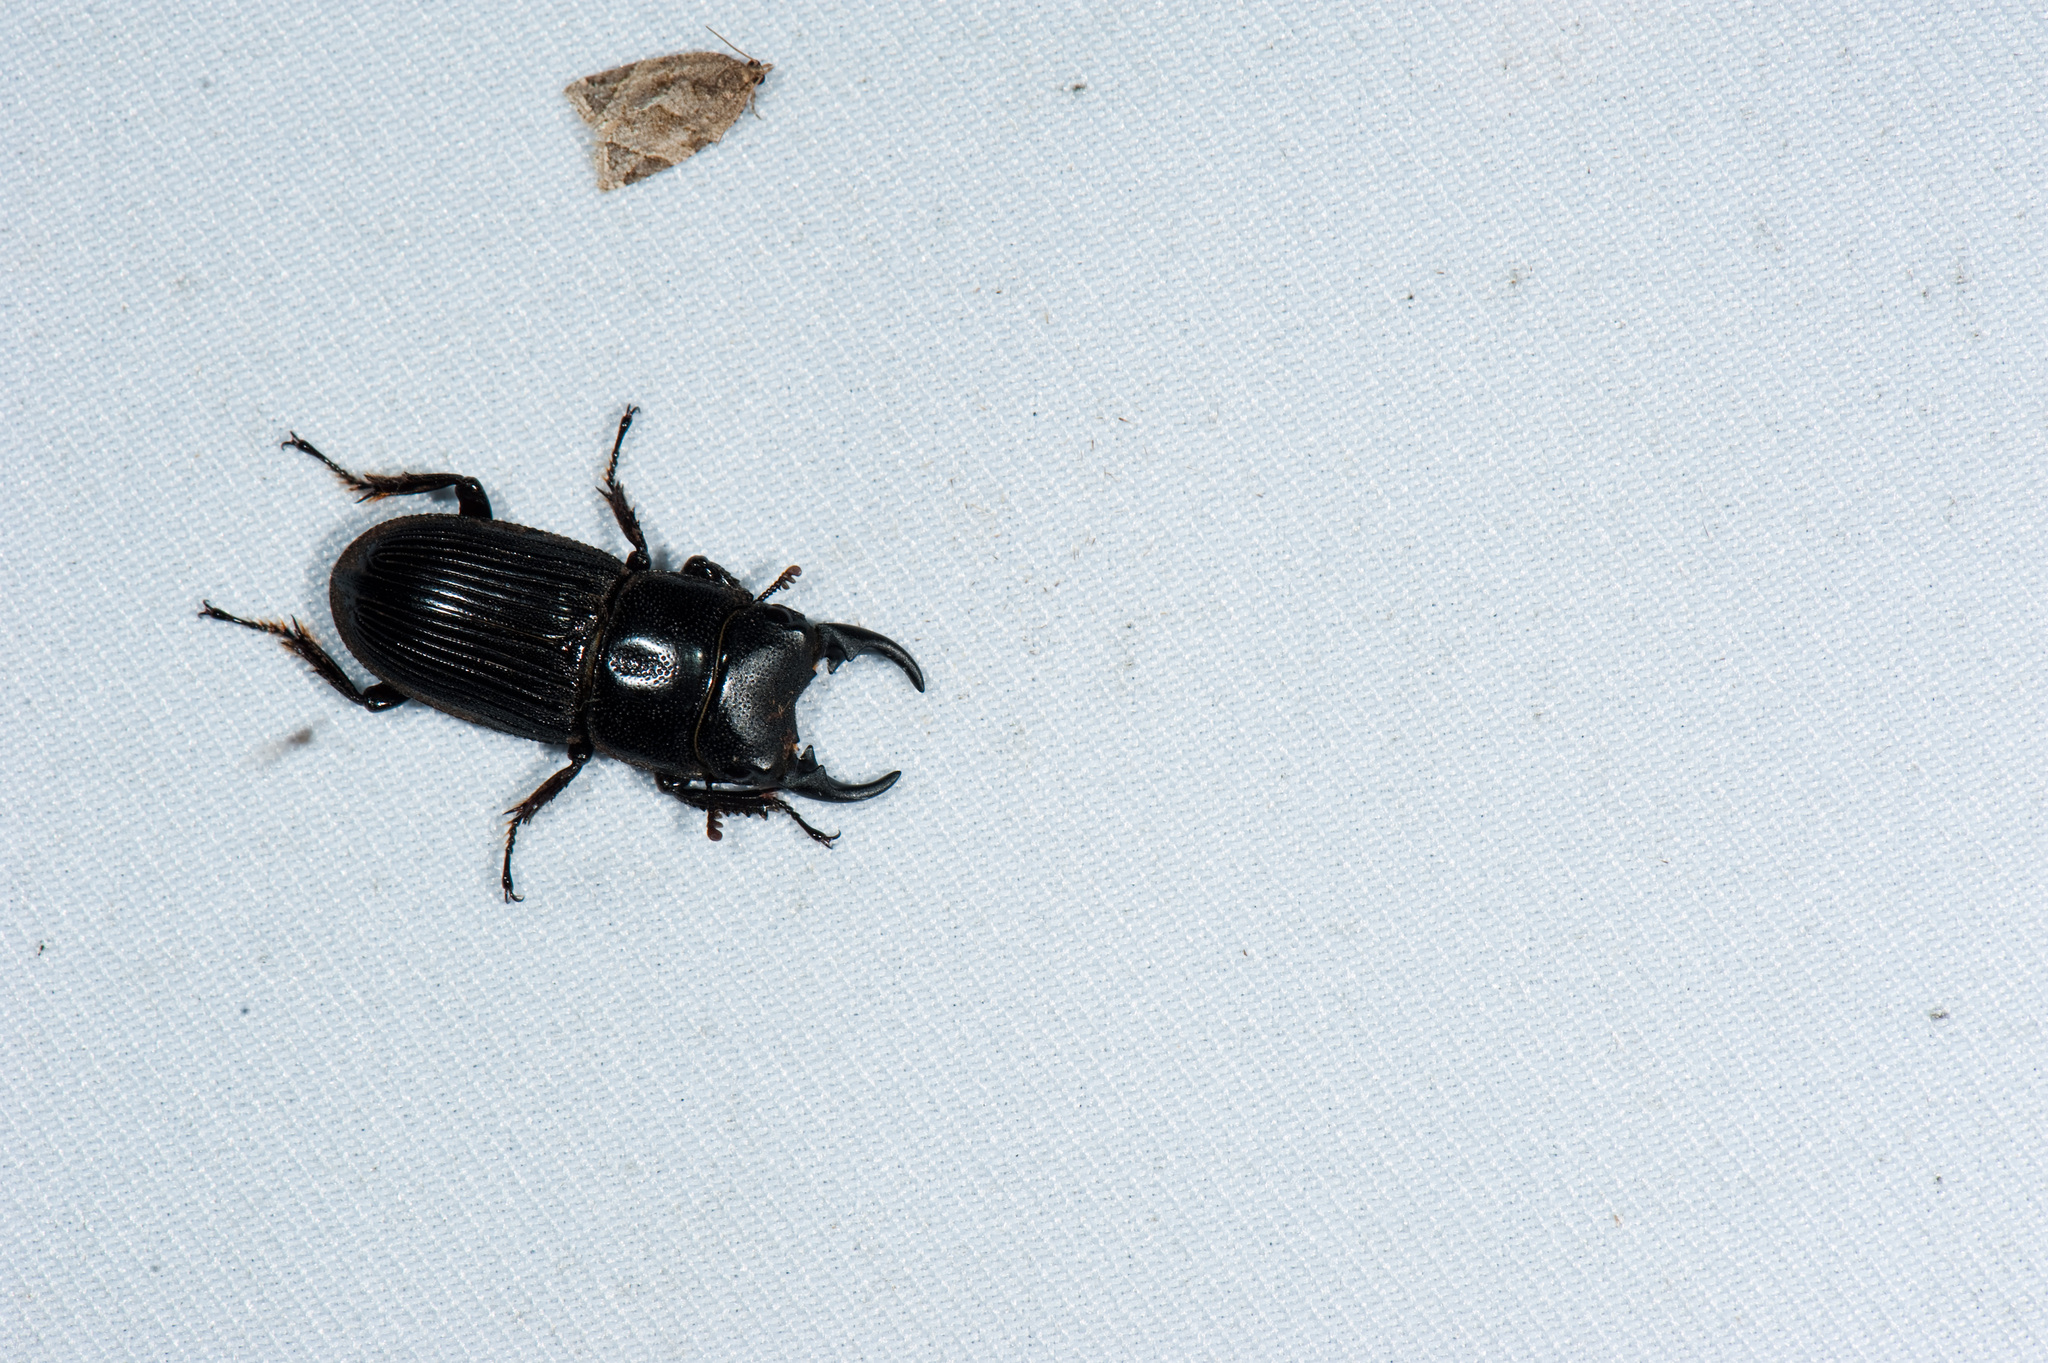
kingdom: Animalia
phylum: Arthropoda
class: Insecta
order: Coleoptera
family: Lucanidae
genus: Aegus
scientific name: Aegus laevicollis
